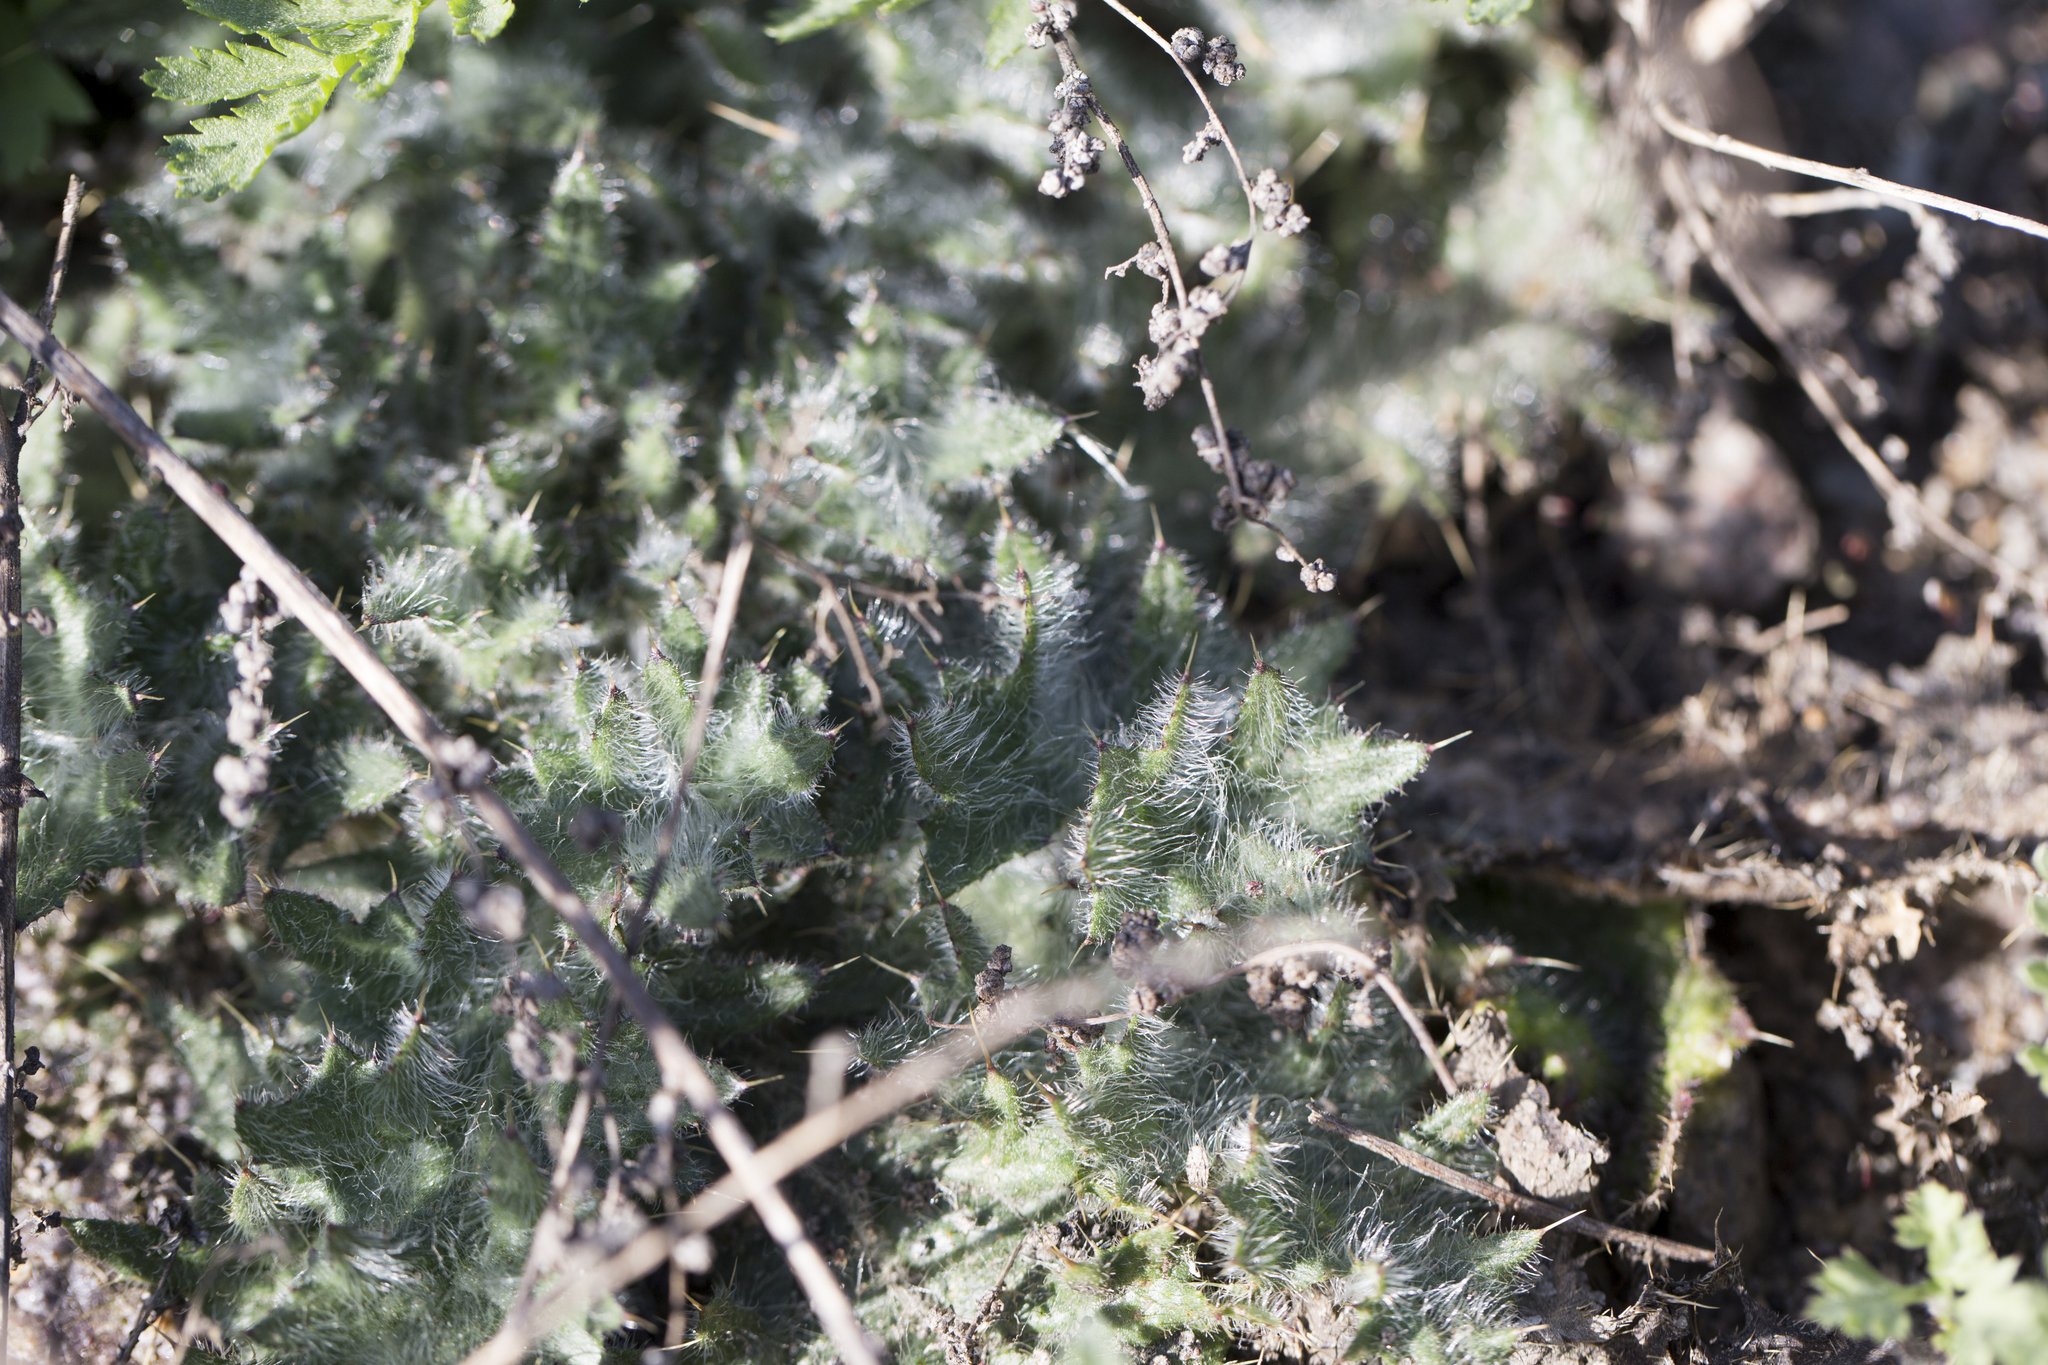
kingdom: Plantae
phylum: Tracheophyta
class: Magnoliopsida
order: Asterales
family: Asteraceae
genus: Cirsium
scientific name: Cirsium vulgare
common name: Bull thistle
